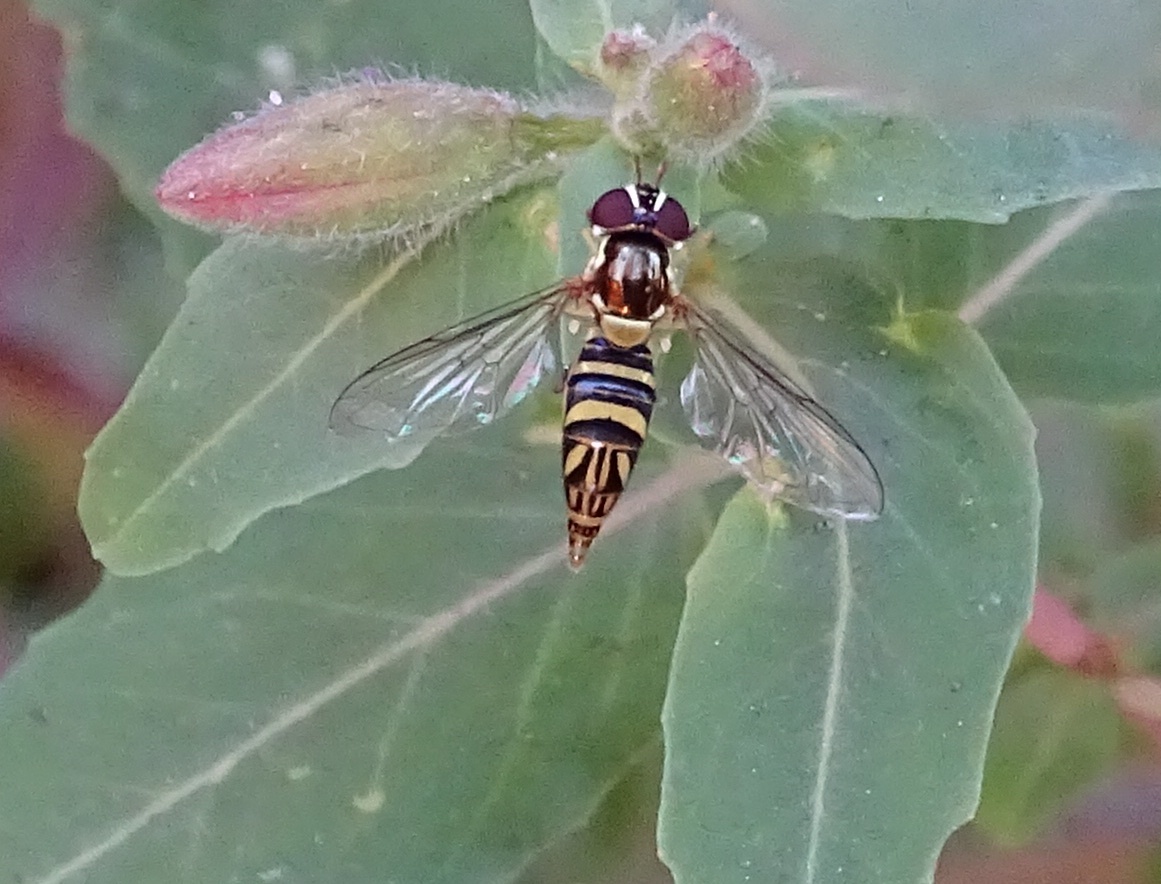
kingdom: Animalia
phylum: Arthropoda
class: Insecta
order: Diptera
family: Syrphidae
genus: Allograpta
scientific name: Allograpta obliqua
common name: Common oblique syrphid
